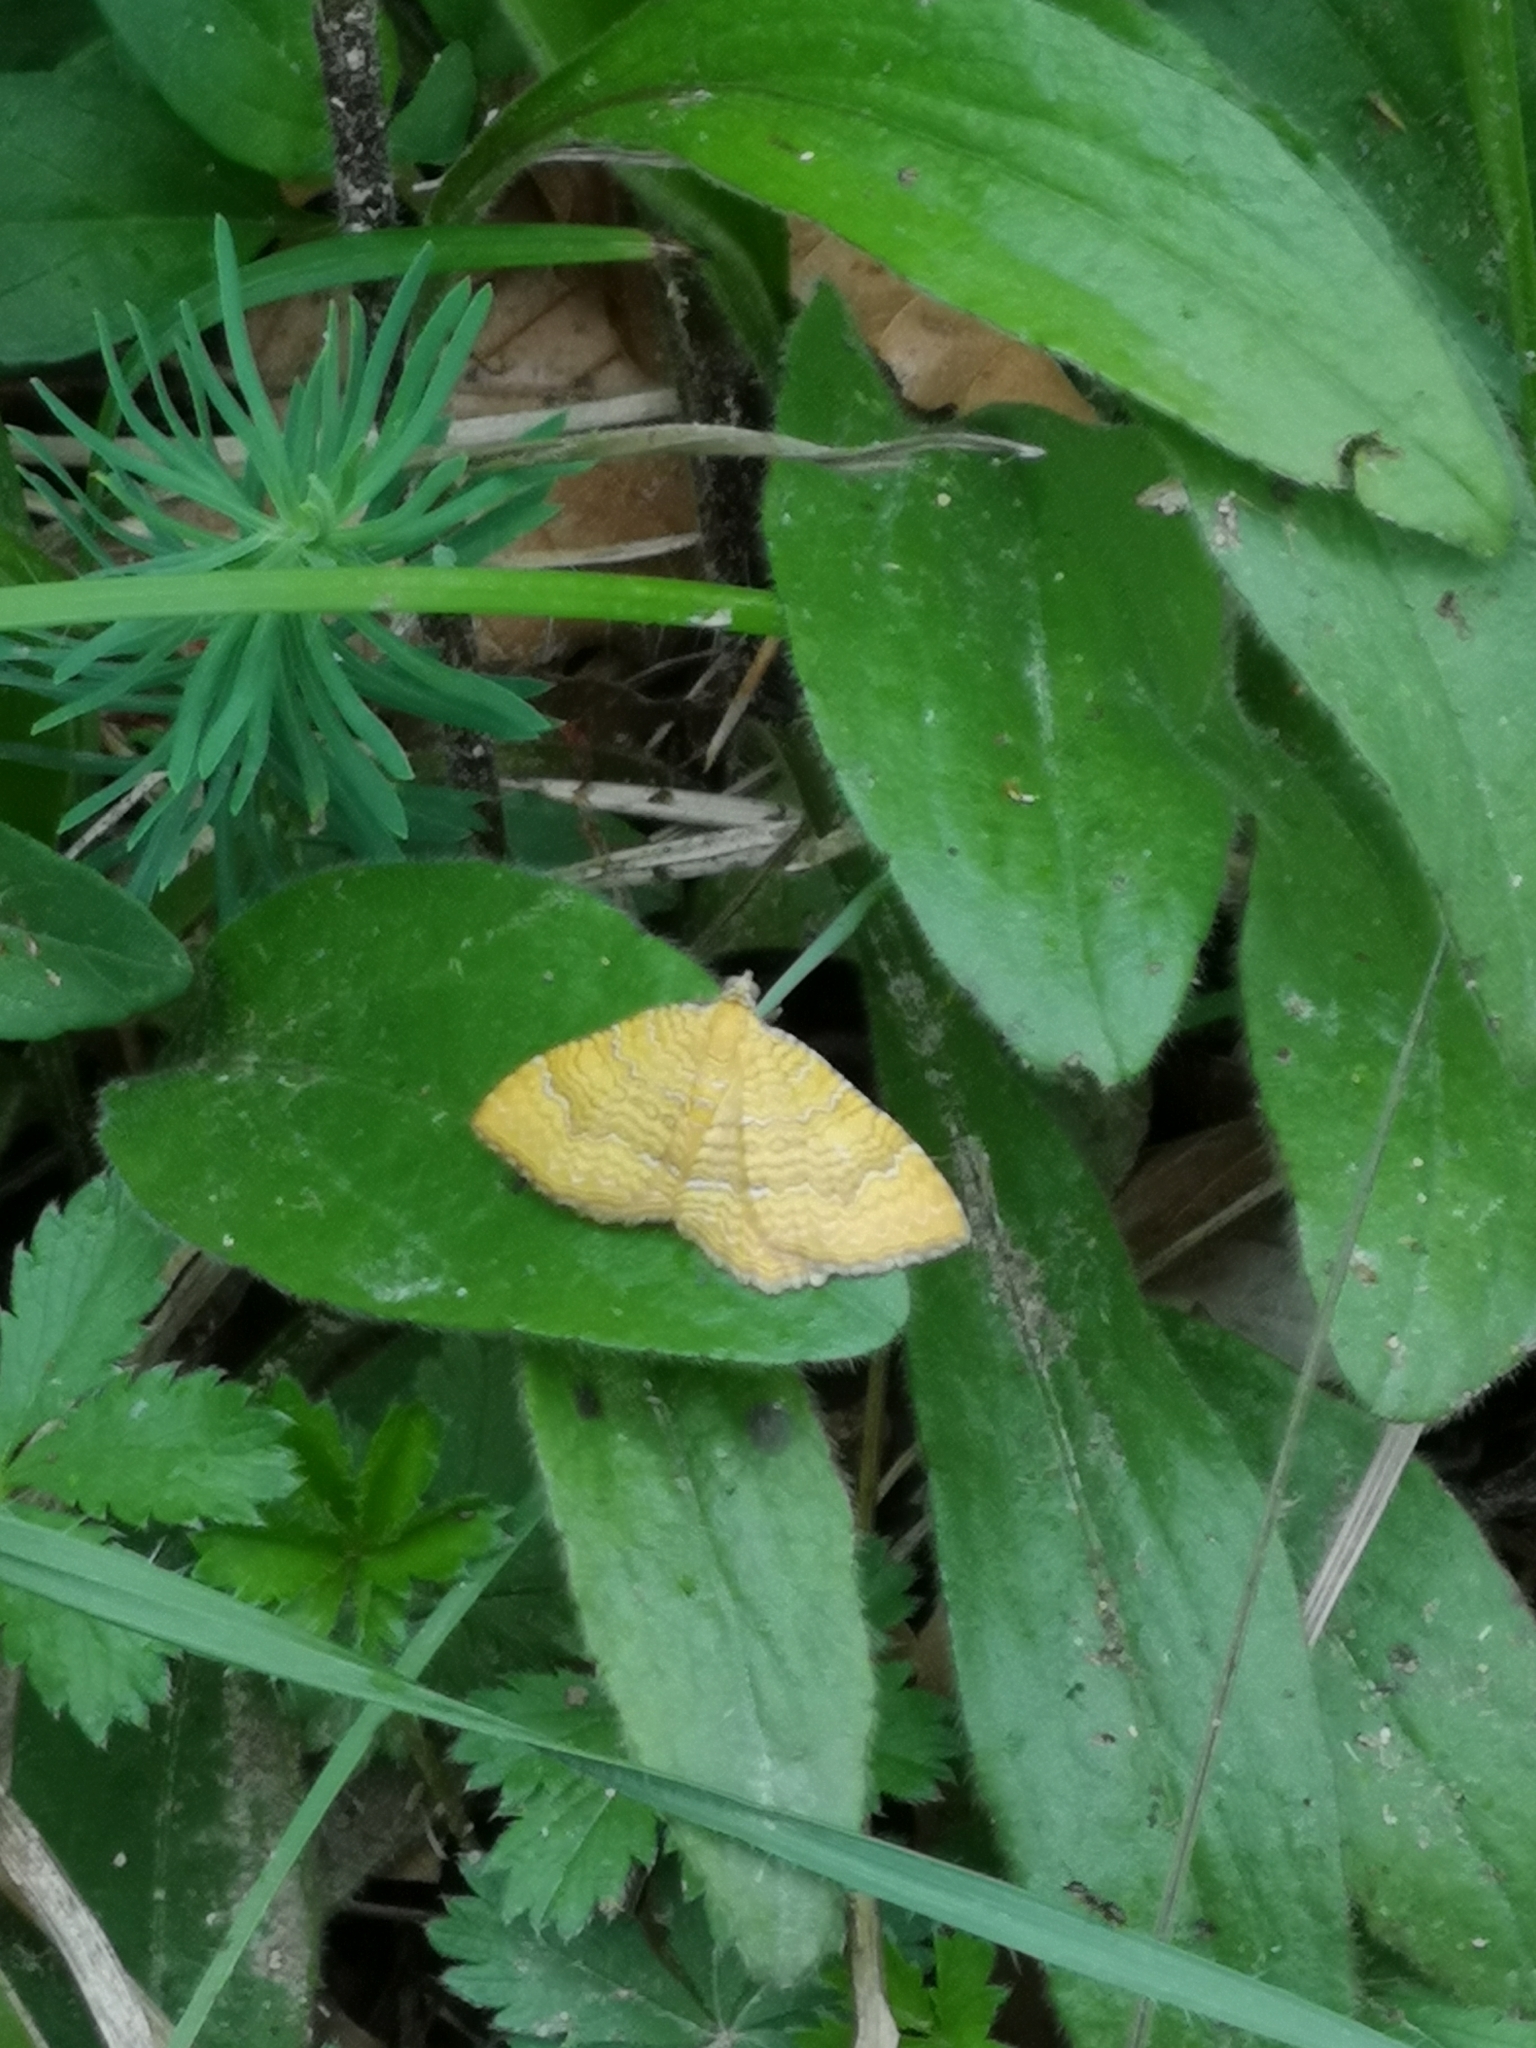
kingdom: Animalia
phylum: Arthropoda
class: Insecta
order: Lepidoptera
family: Geometridae
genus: Camptogramma
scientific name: Camptogramma bilineata
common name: Yellow shell
